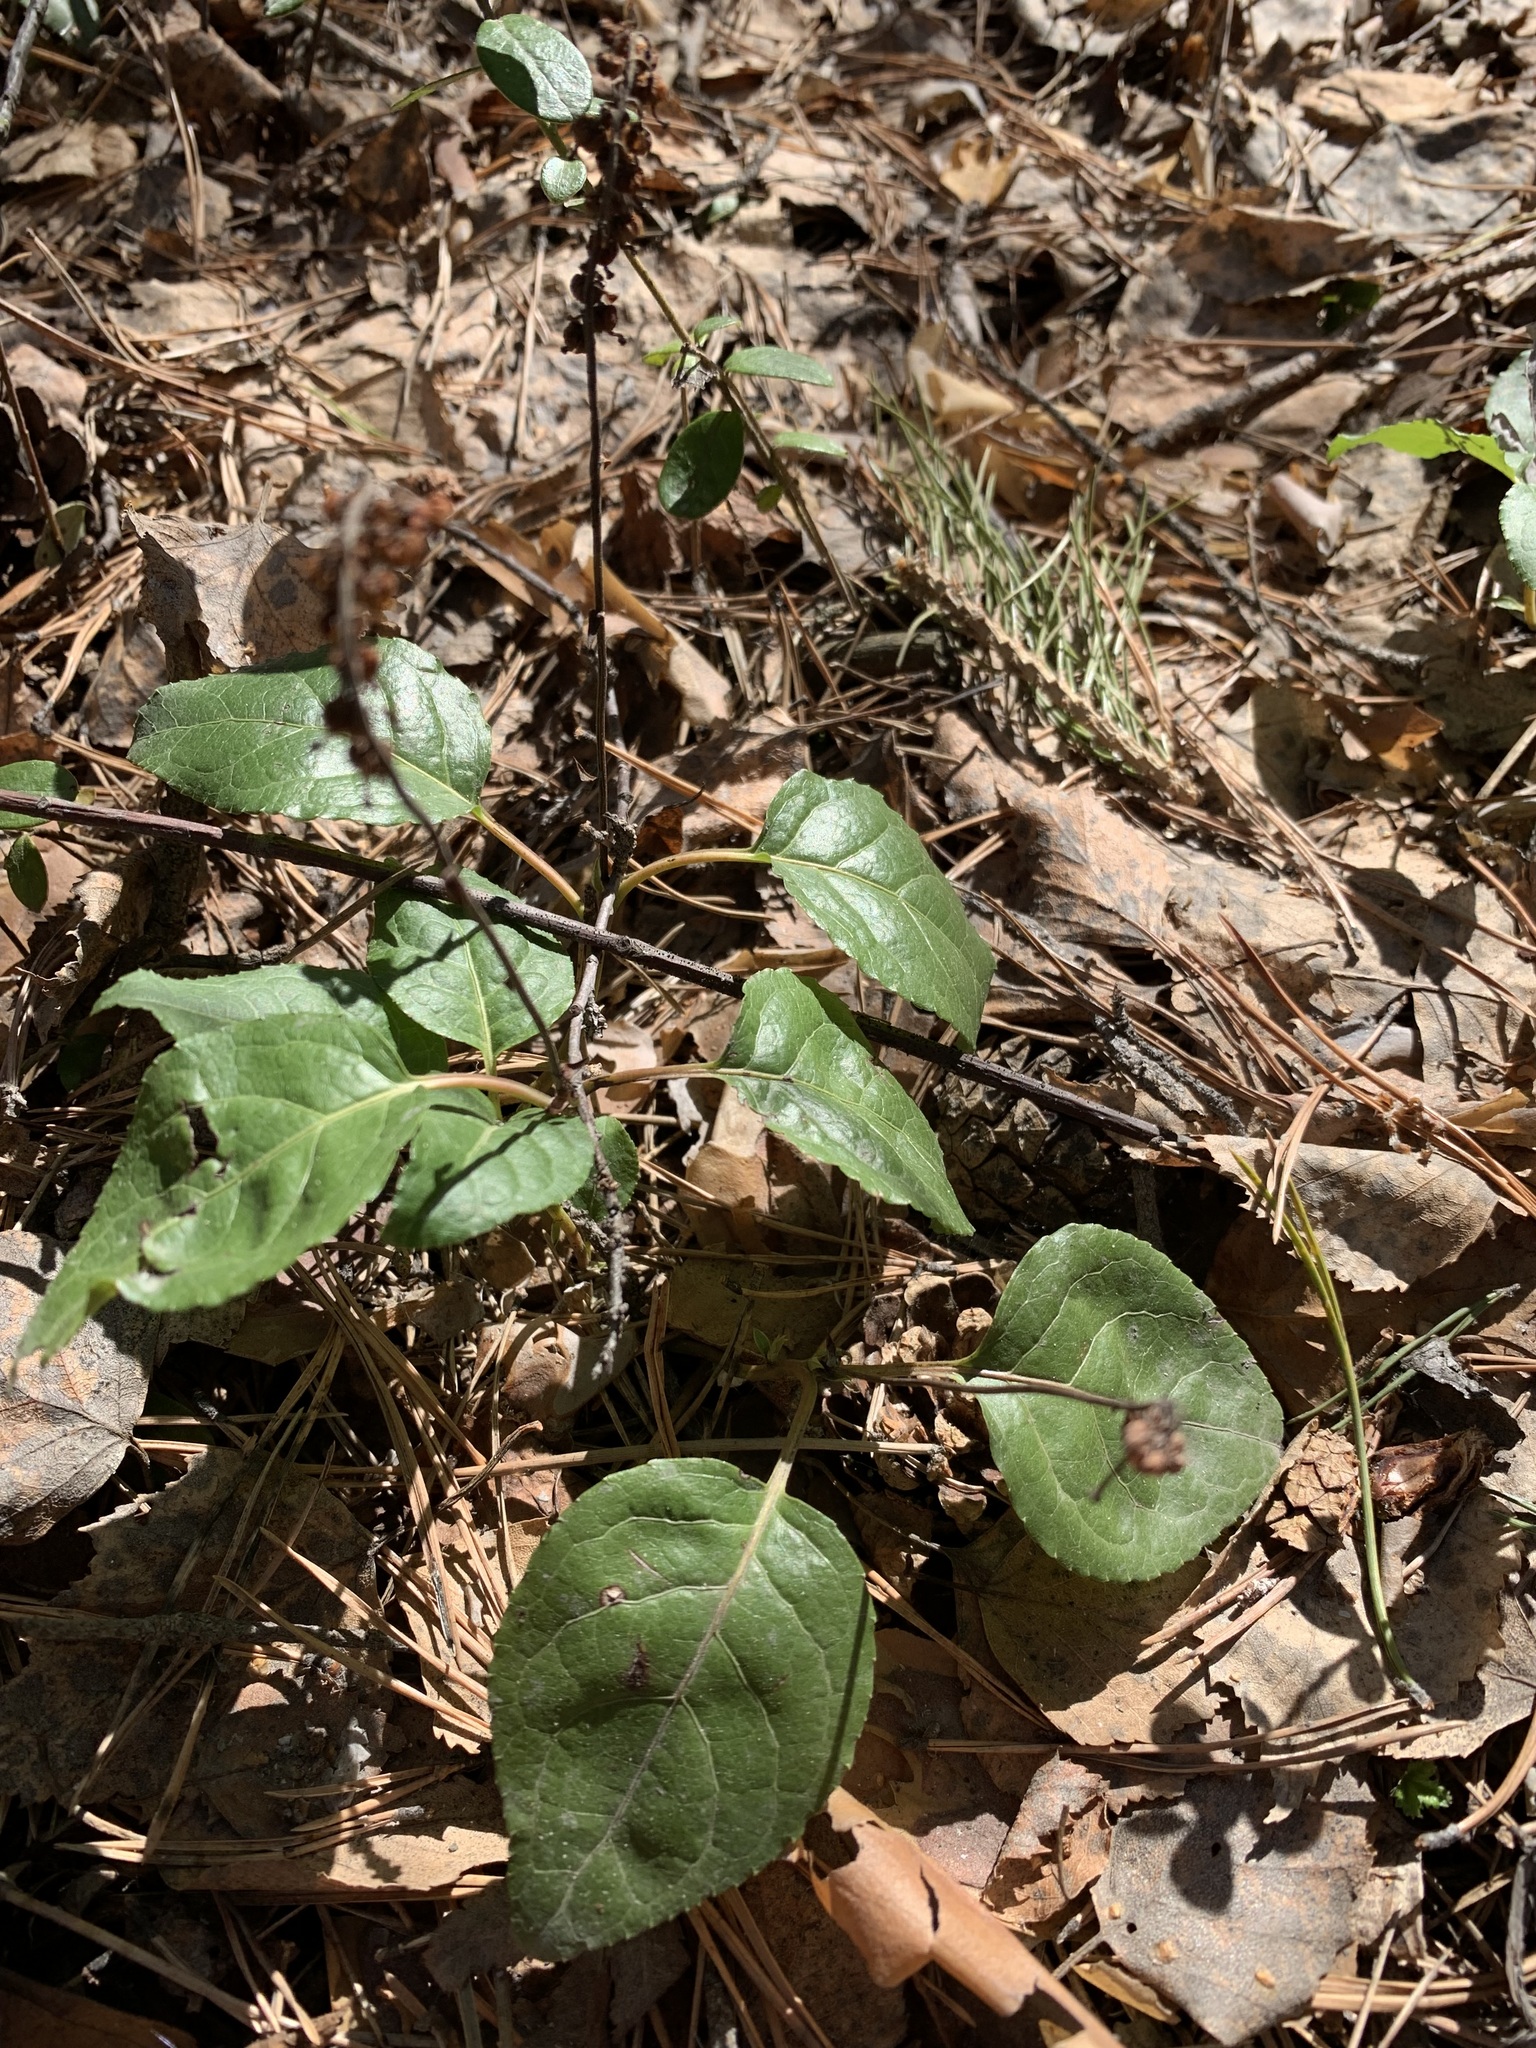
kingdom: Plantae
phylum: Tracheophyta
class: Magnoliopsida
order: Ericales
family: Ericaceae
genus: Orthilia
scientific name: Orthilia secunda
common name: One-sided orthilia
